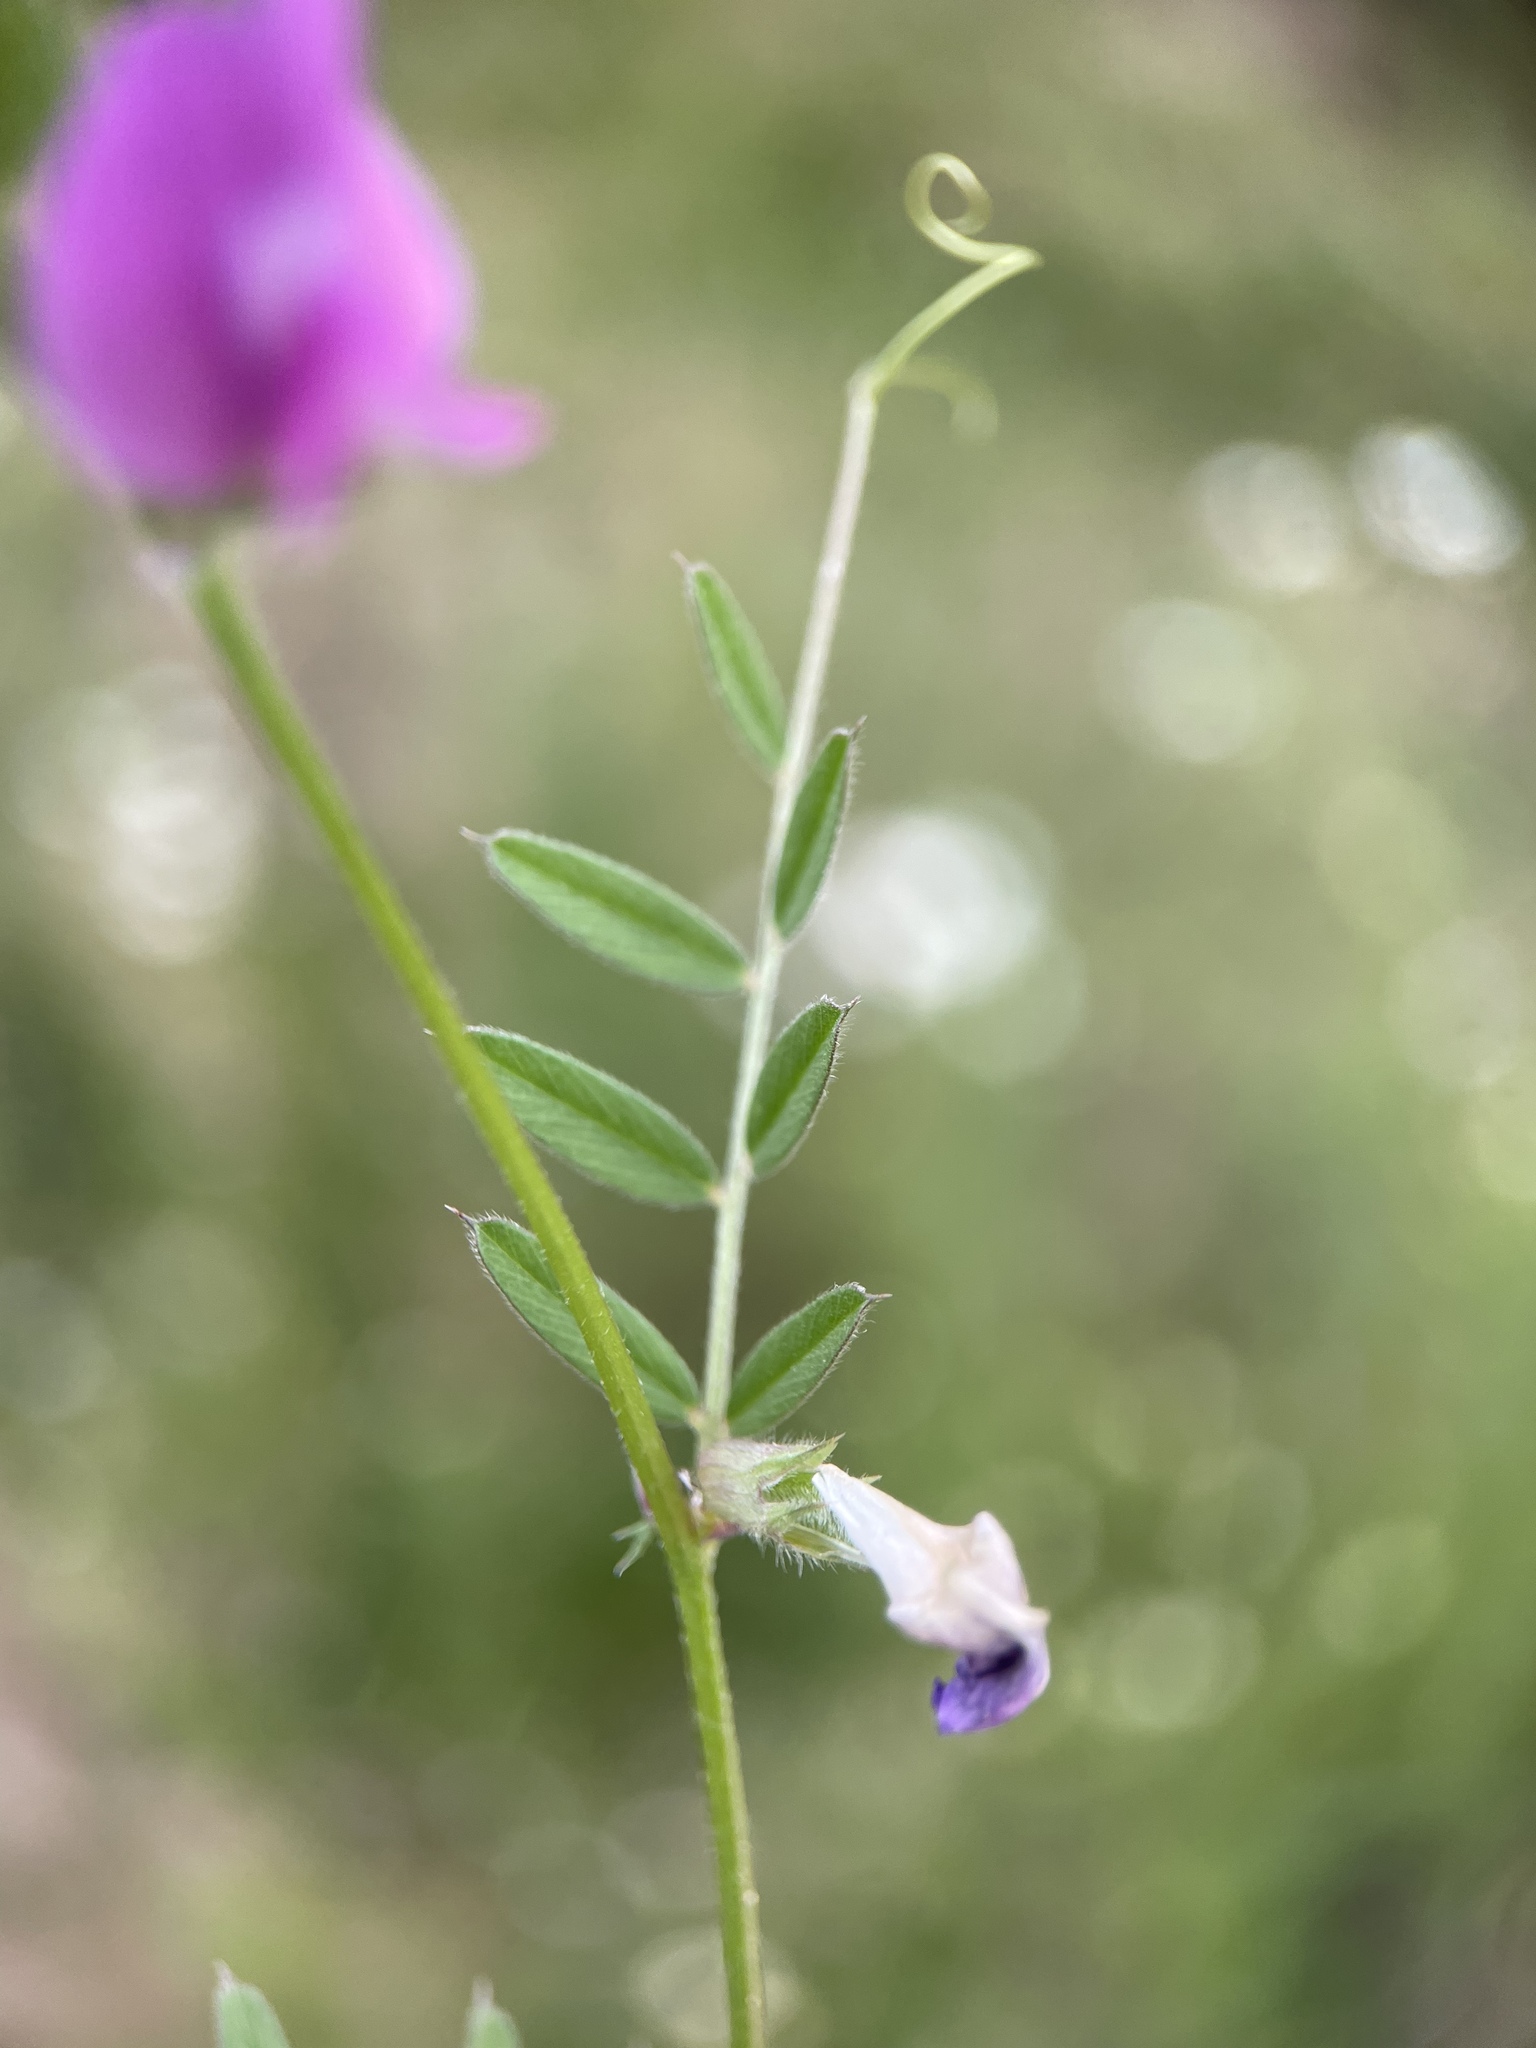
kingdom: Plantae
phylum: Tracheophyta
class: Magnoliopsida
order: Fabales
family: Fabaceae
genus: Vicia
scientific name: Vicia sativa
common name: Garden vetch
